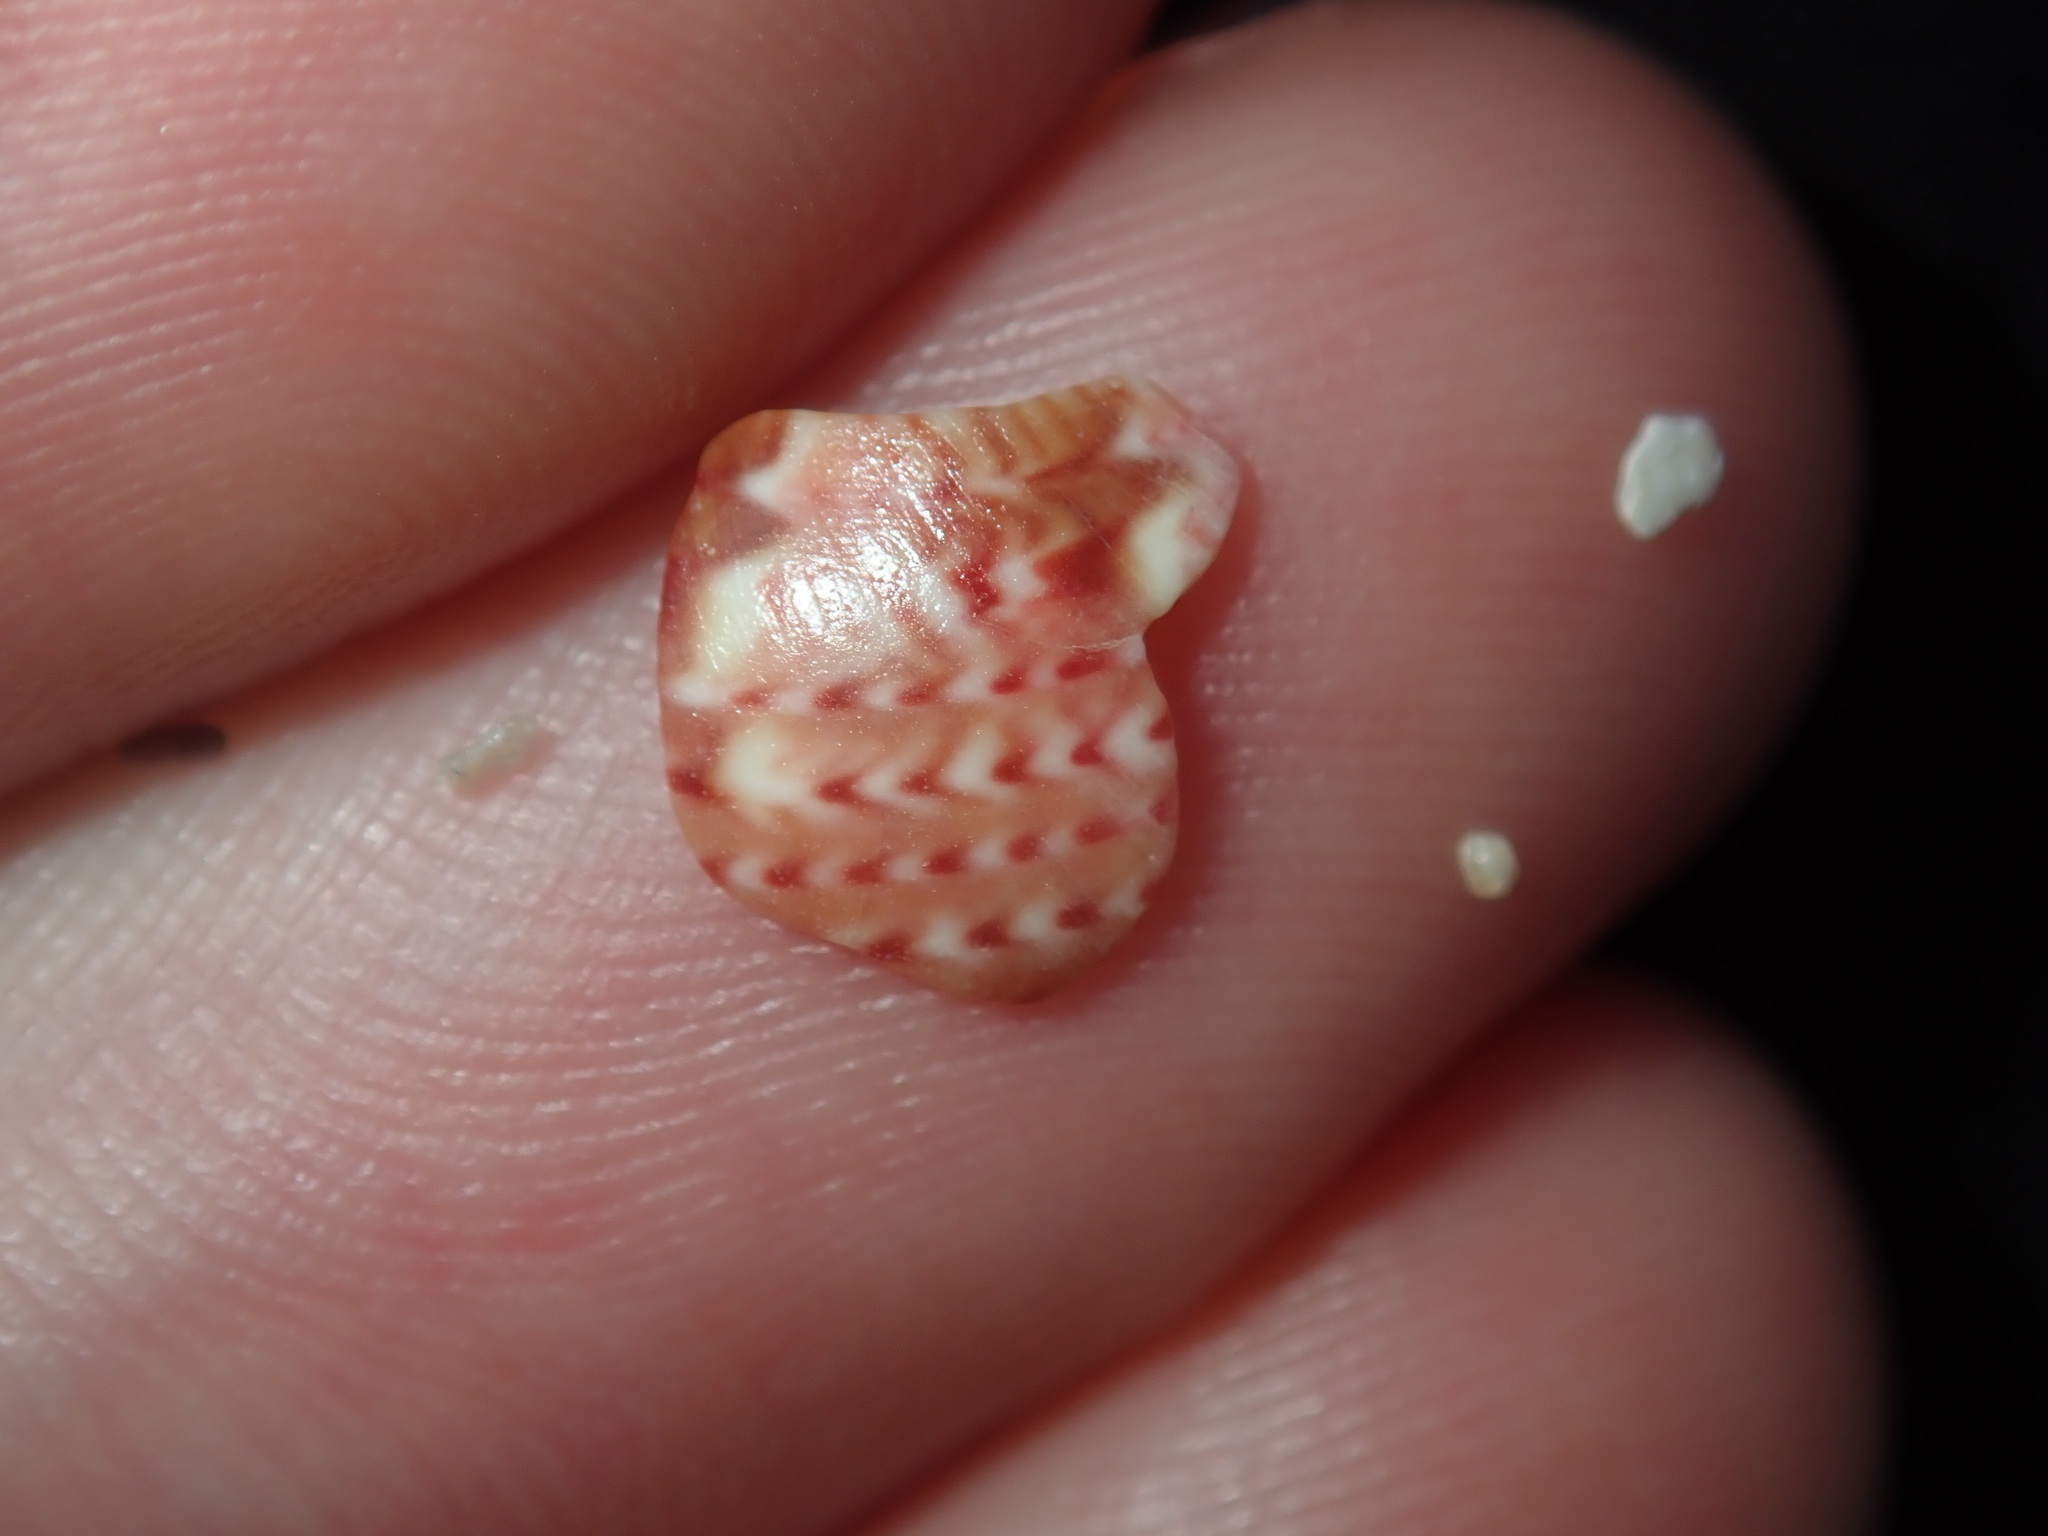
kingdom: Animalia
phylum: Mollusca
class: Gastropoda
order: Trochida
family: Phasianellidae
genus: Phasianella
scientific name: Phasianella ventricosa
